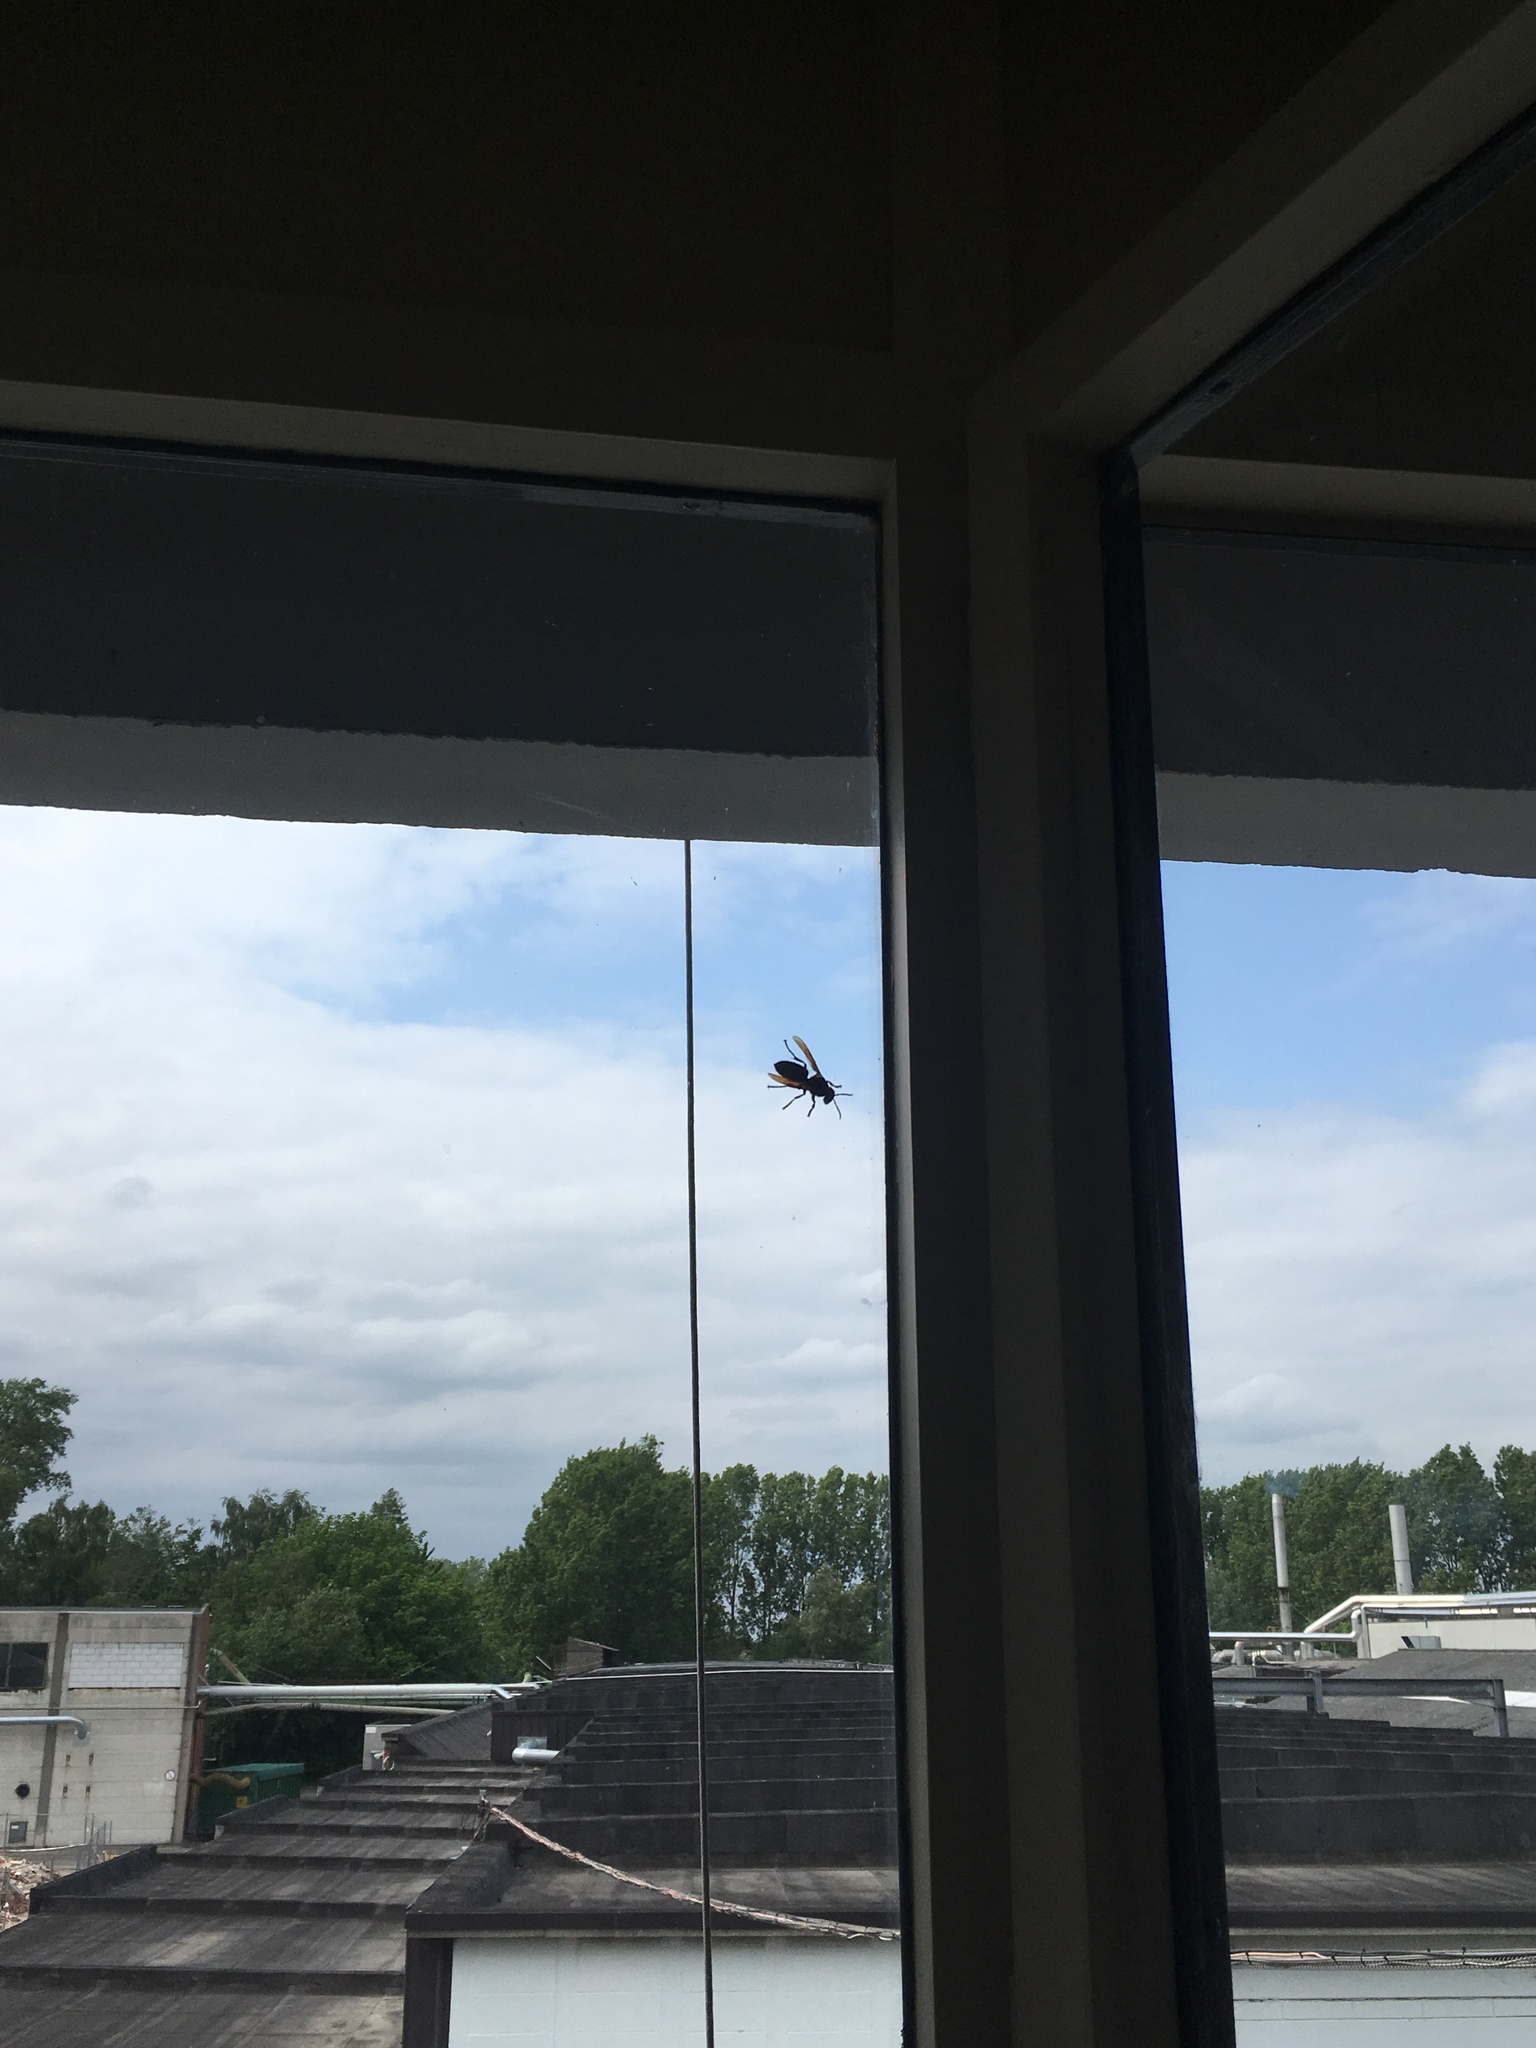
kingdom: Animalia
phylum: Arthropoda
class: Insecta
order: Hymenoptera
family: Vespidae
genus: Vespa
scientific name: Vespa crabro
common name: Hornet
